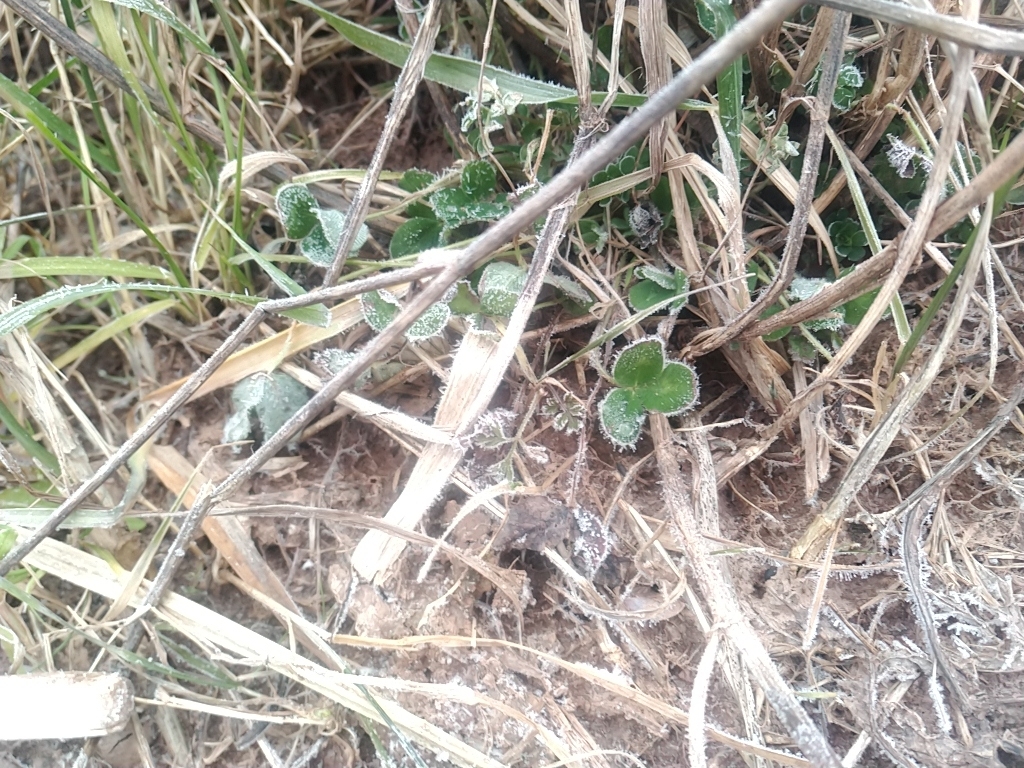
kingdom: Plantae
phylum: Tracheophyta
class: Magnoliopsida
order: Fabales
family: Fabaceae
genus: Trifolium
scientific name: Trifolium pratense
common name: Red clover
